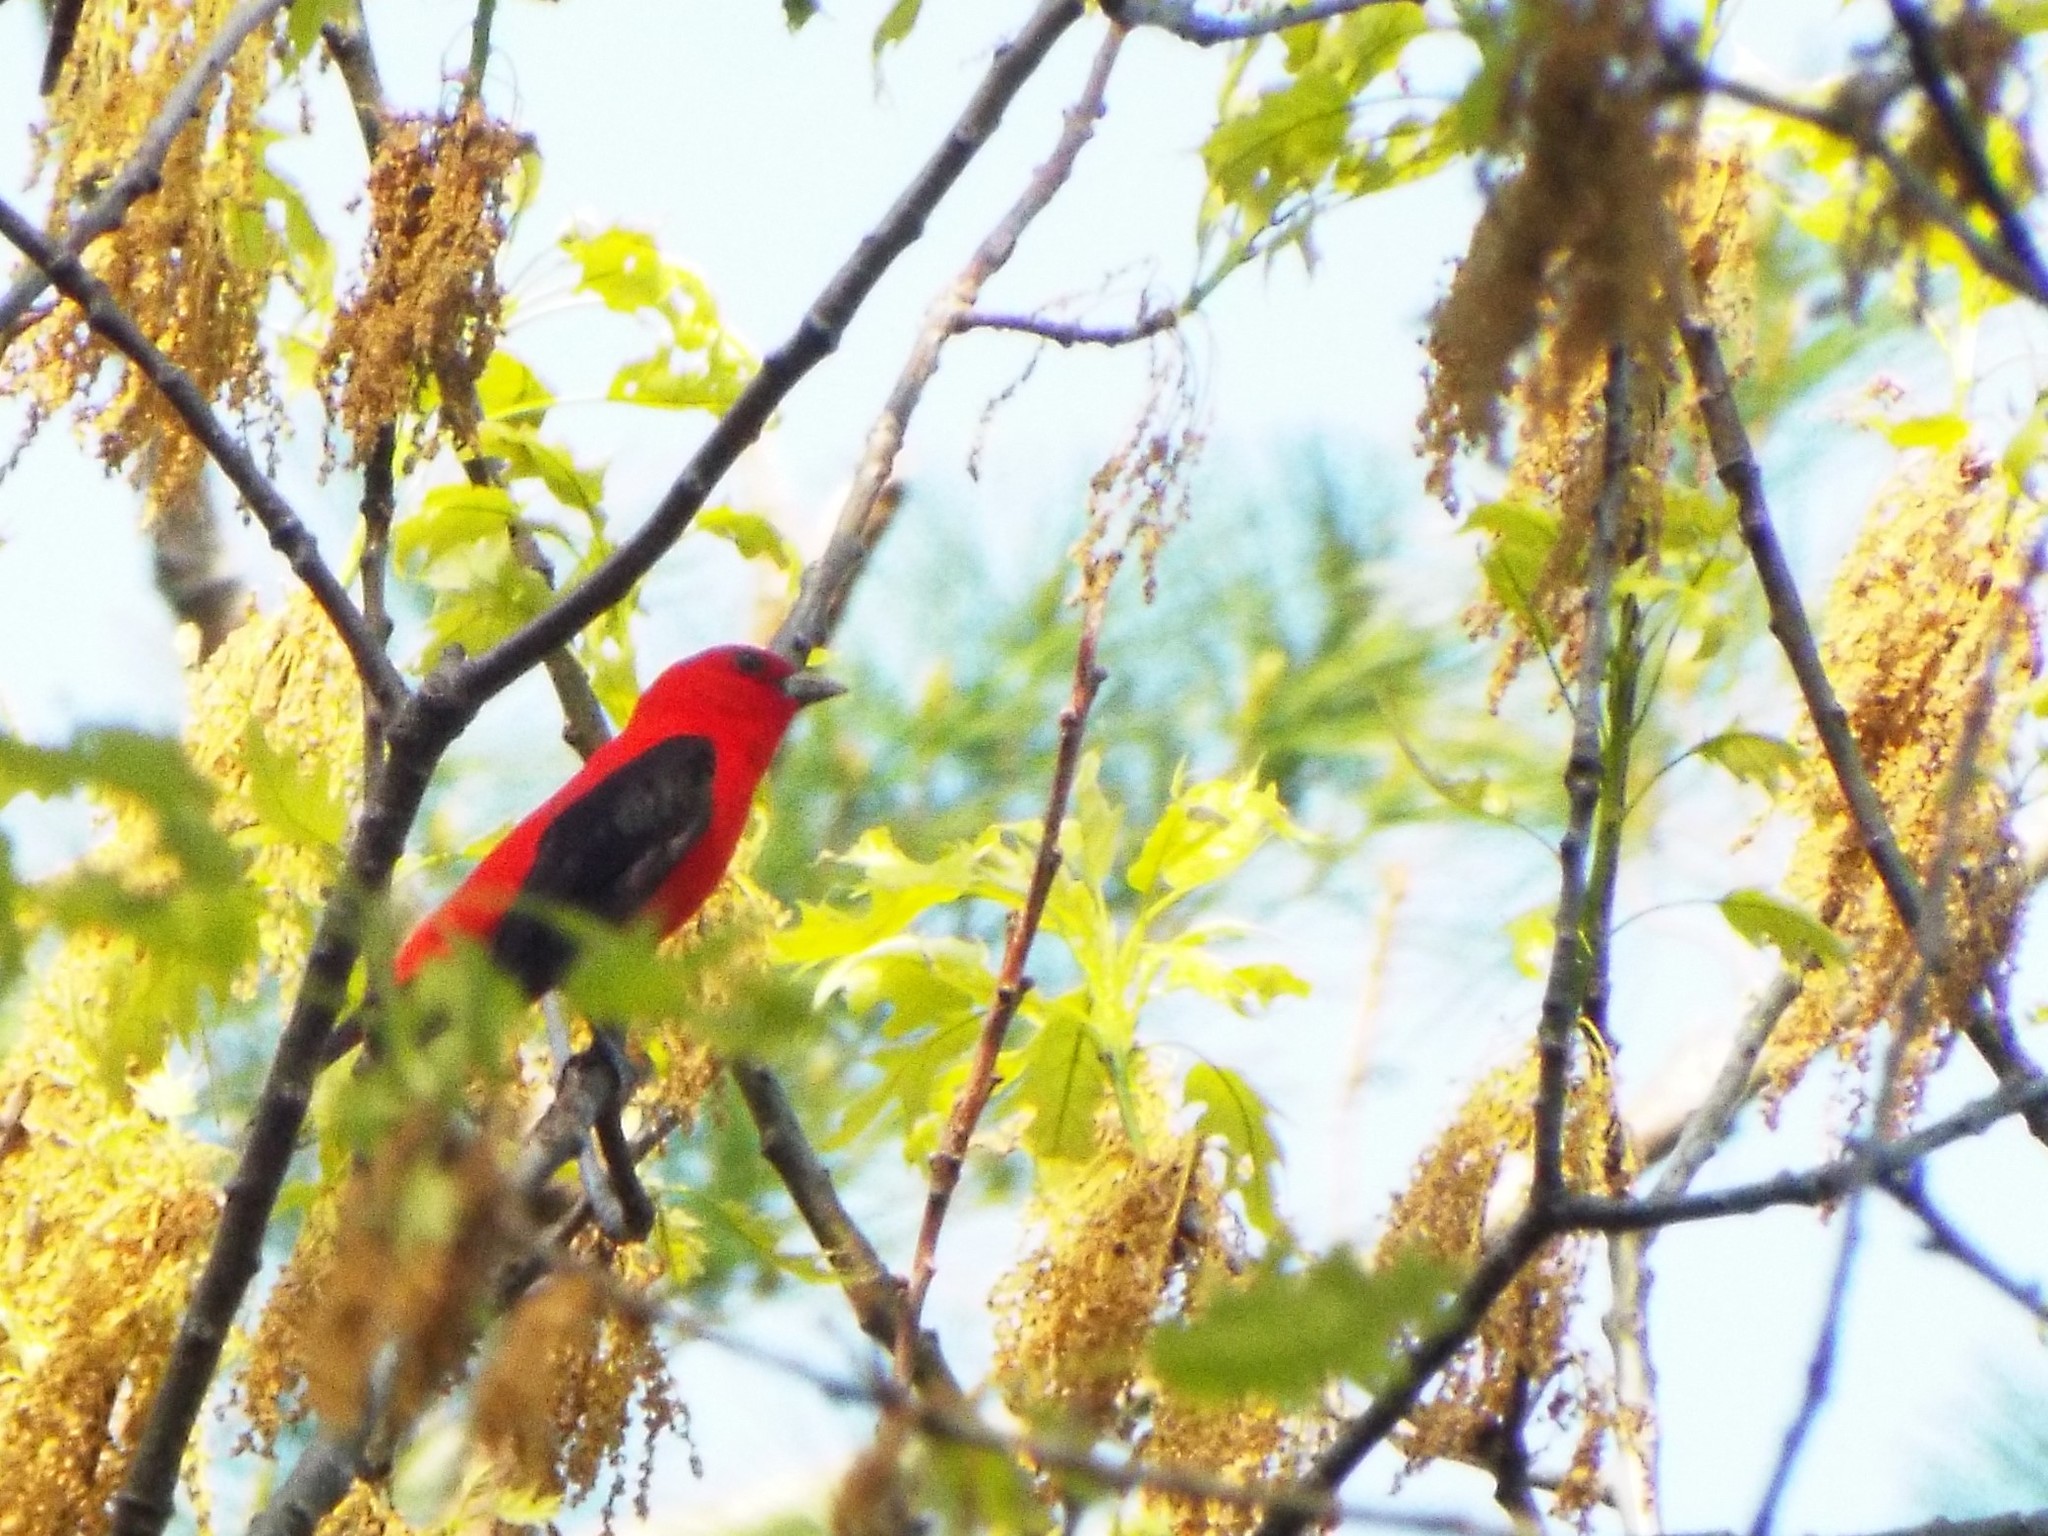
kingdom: Animalia
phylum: Chordata
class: Aves
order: Passeriformes
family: Cardinalidae
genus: Piranga
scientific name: Piranga olivacea
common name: Scarlet tanager
